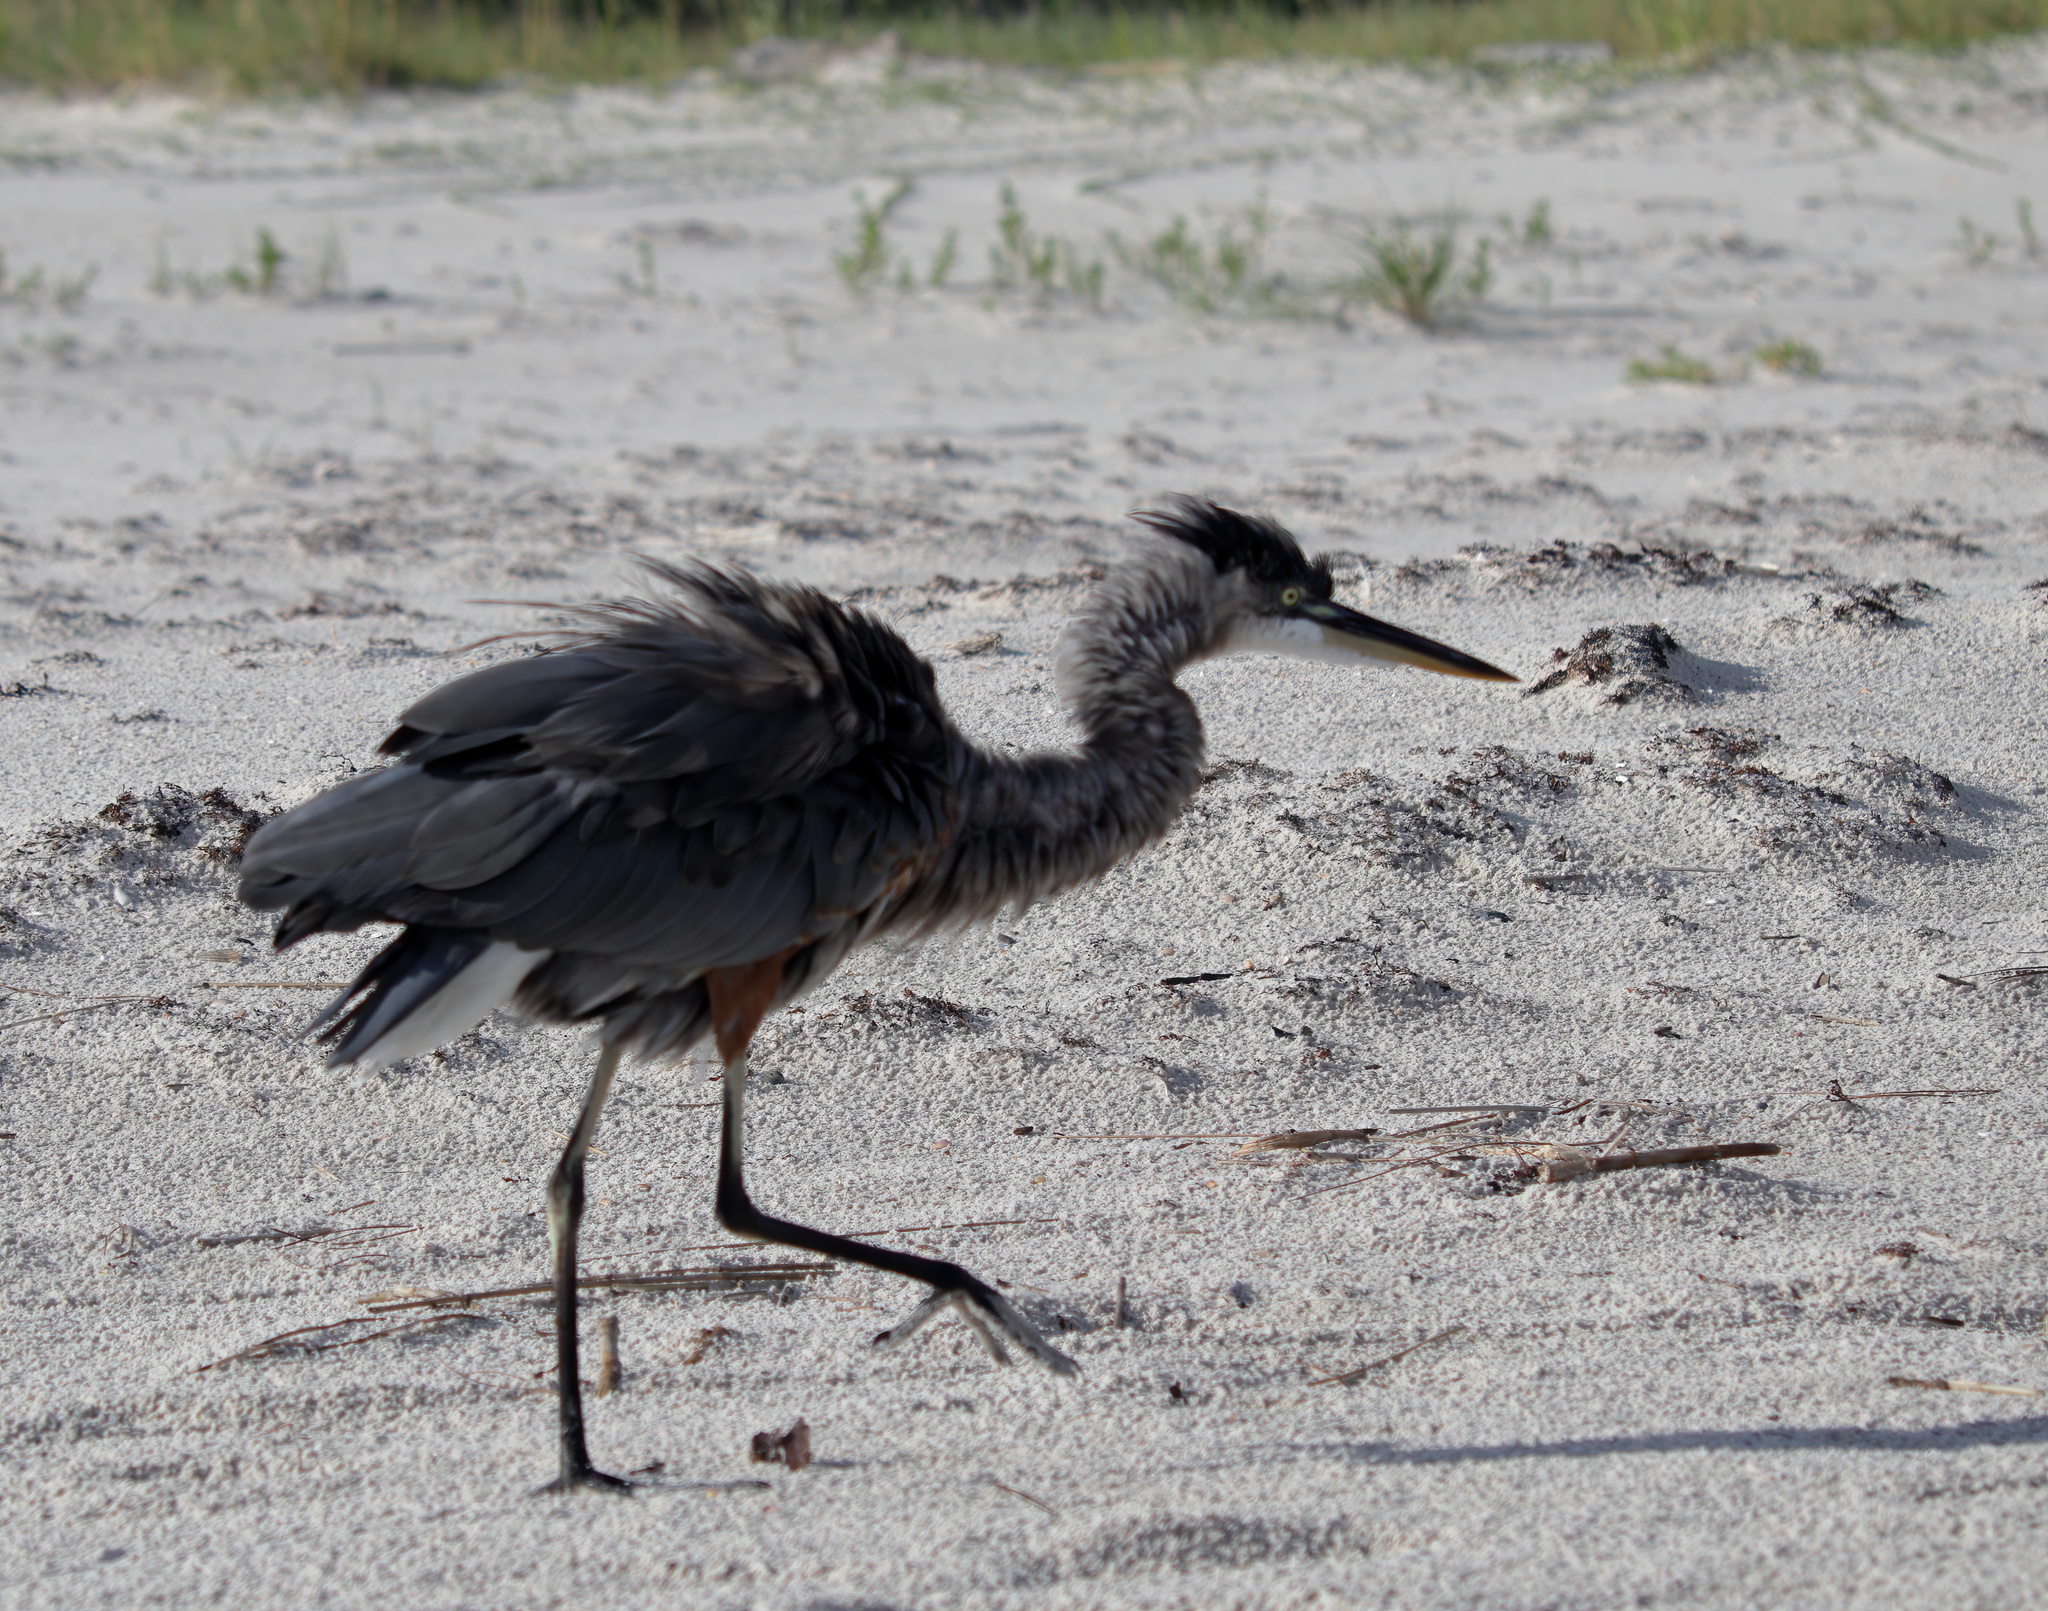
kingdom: Animalia
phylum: Chordata
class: Aves
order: Pelecaniformes
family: Ardeidae
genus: Ardea
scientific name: Ardea herodias
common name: Great blue heron
